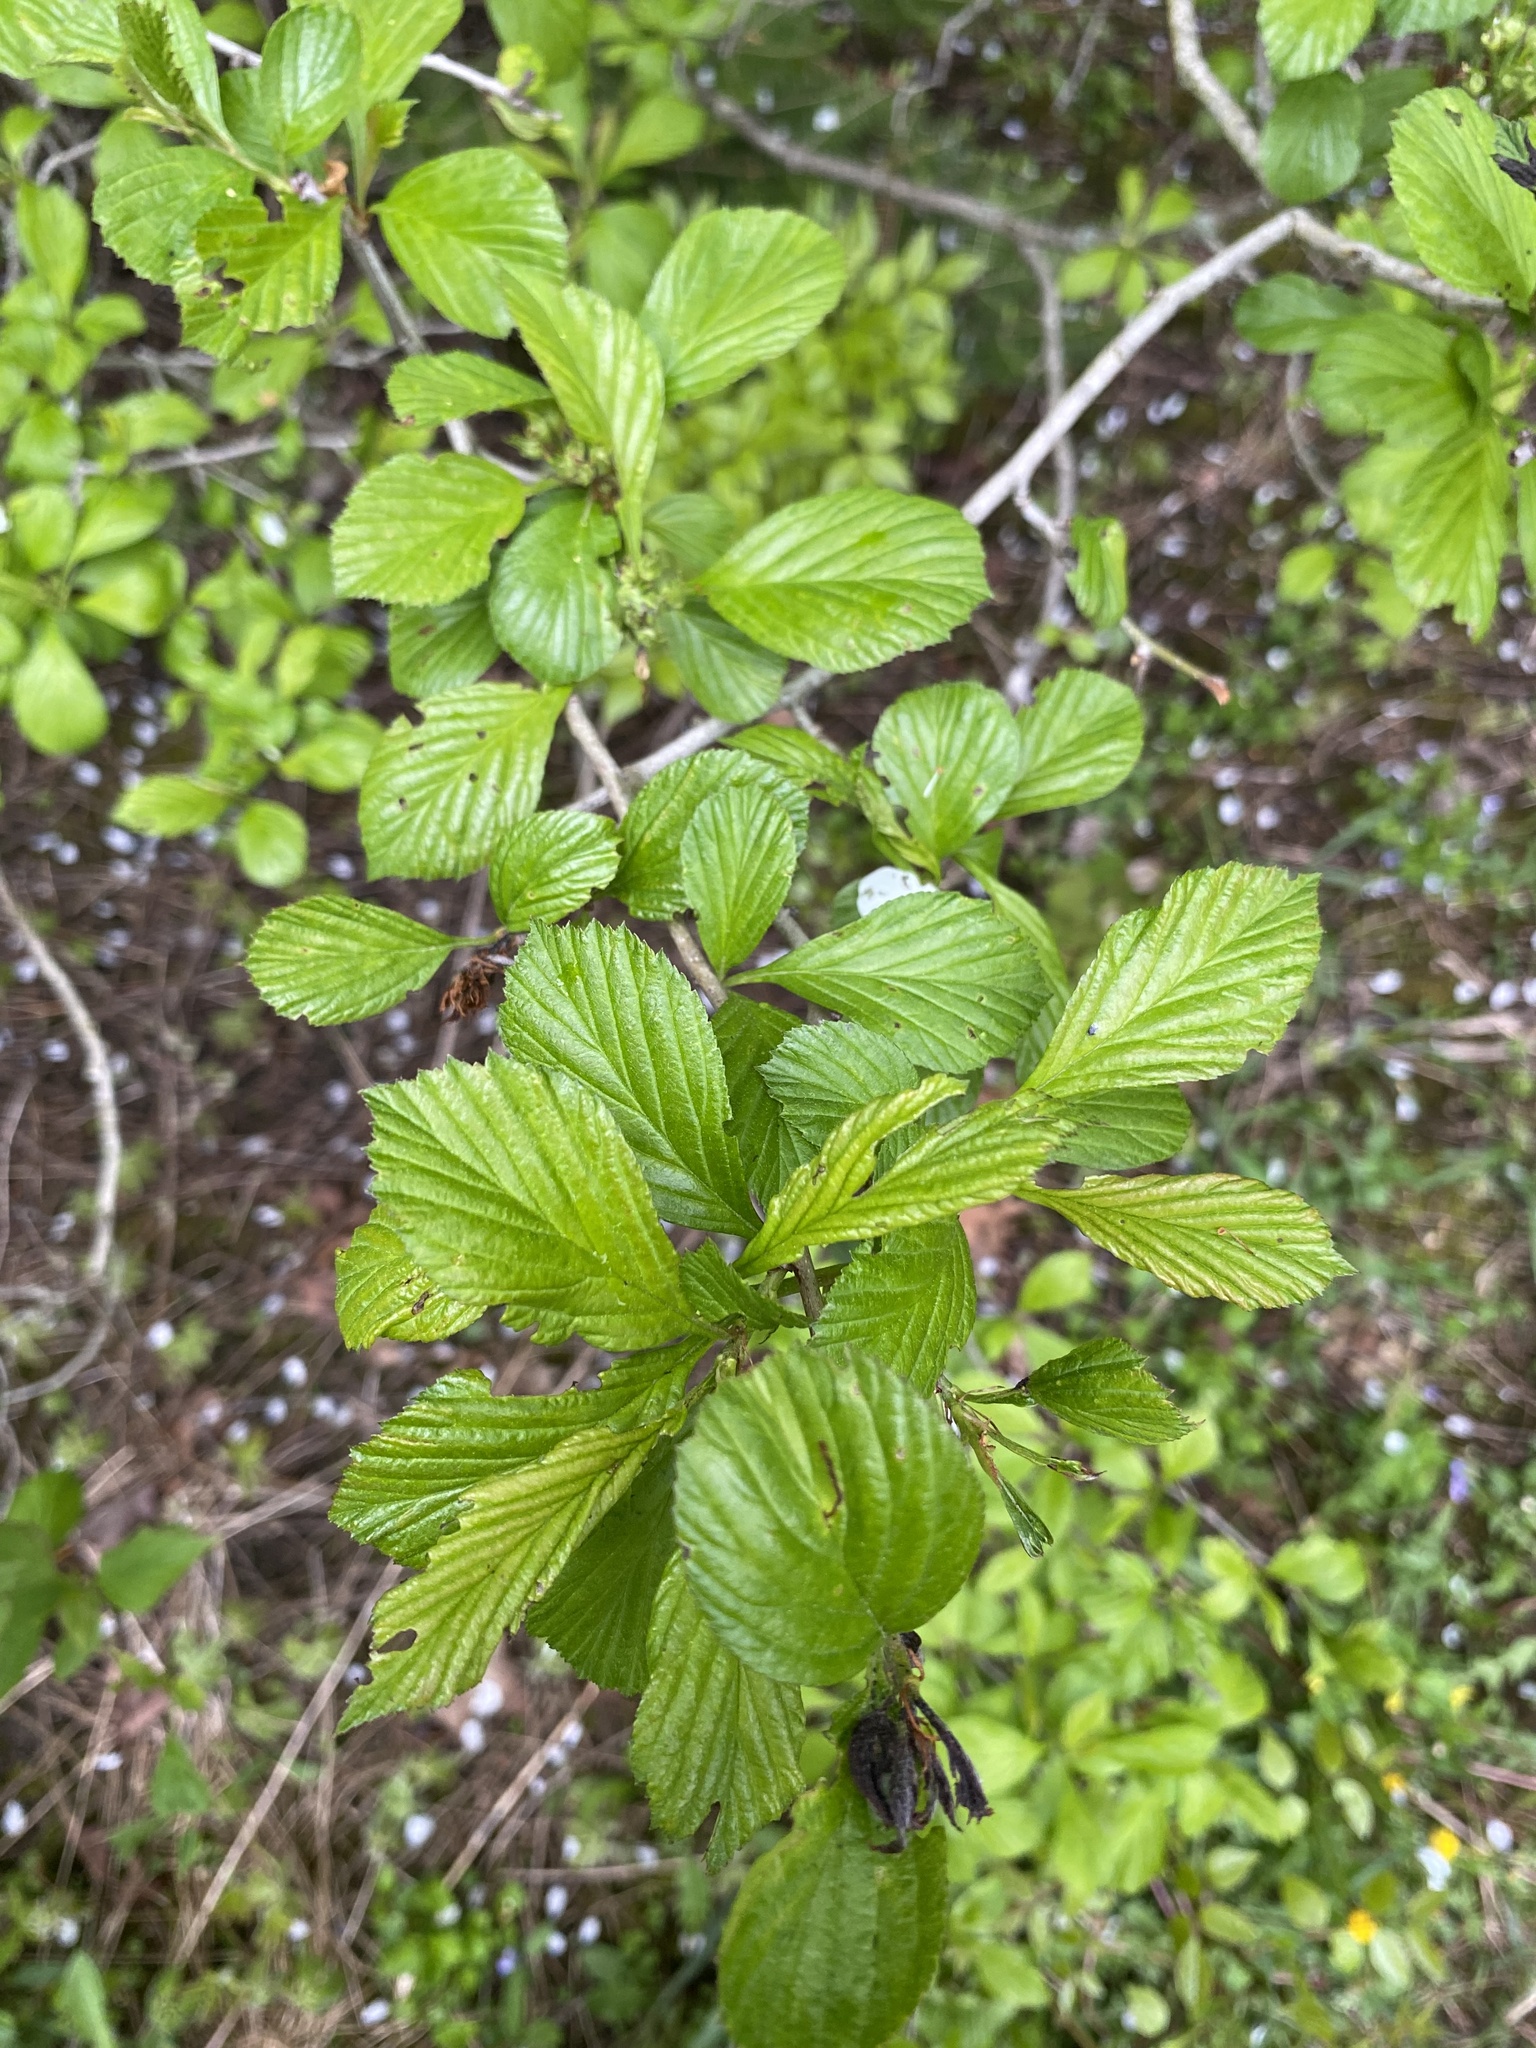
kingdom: Plantae
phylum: Tracheophyta
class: Magnoliopsida
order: Rosales
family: Rosaceae
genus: Crataegus
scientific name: Crataegus punctata
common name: Dotted hawthorn
